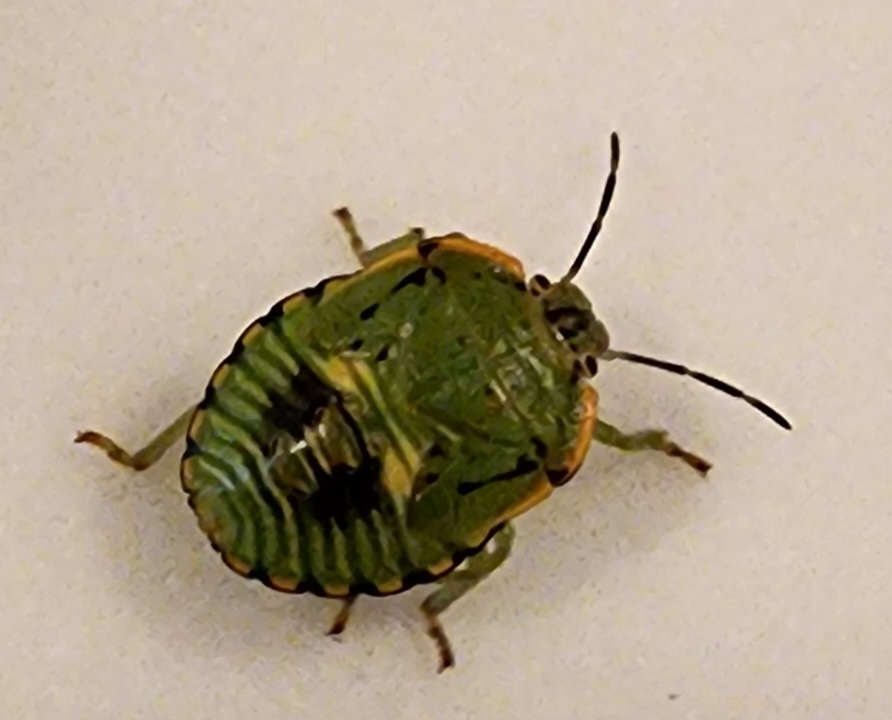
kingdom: Animalia
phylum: Arthropoda
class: Insecta
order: Hemiptera
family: Pentatomidae
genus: Chinavia
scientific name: Chinavia hilaris
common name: Green stink bug
